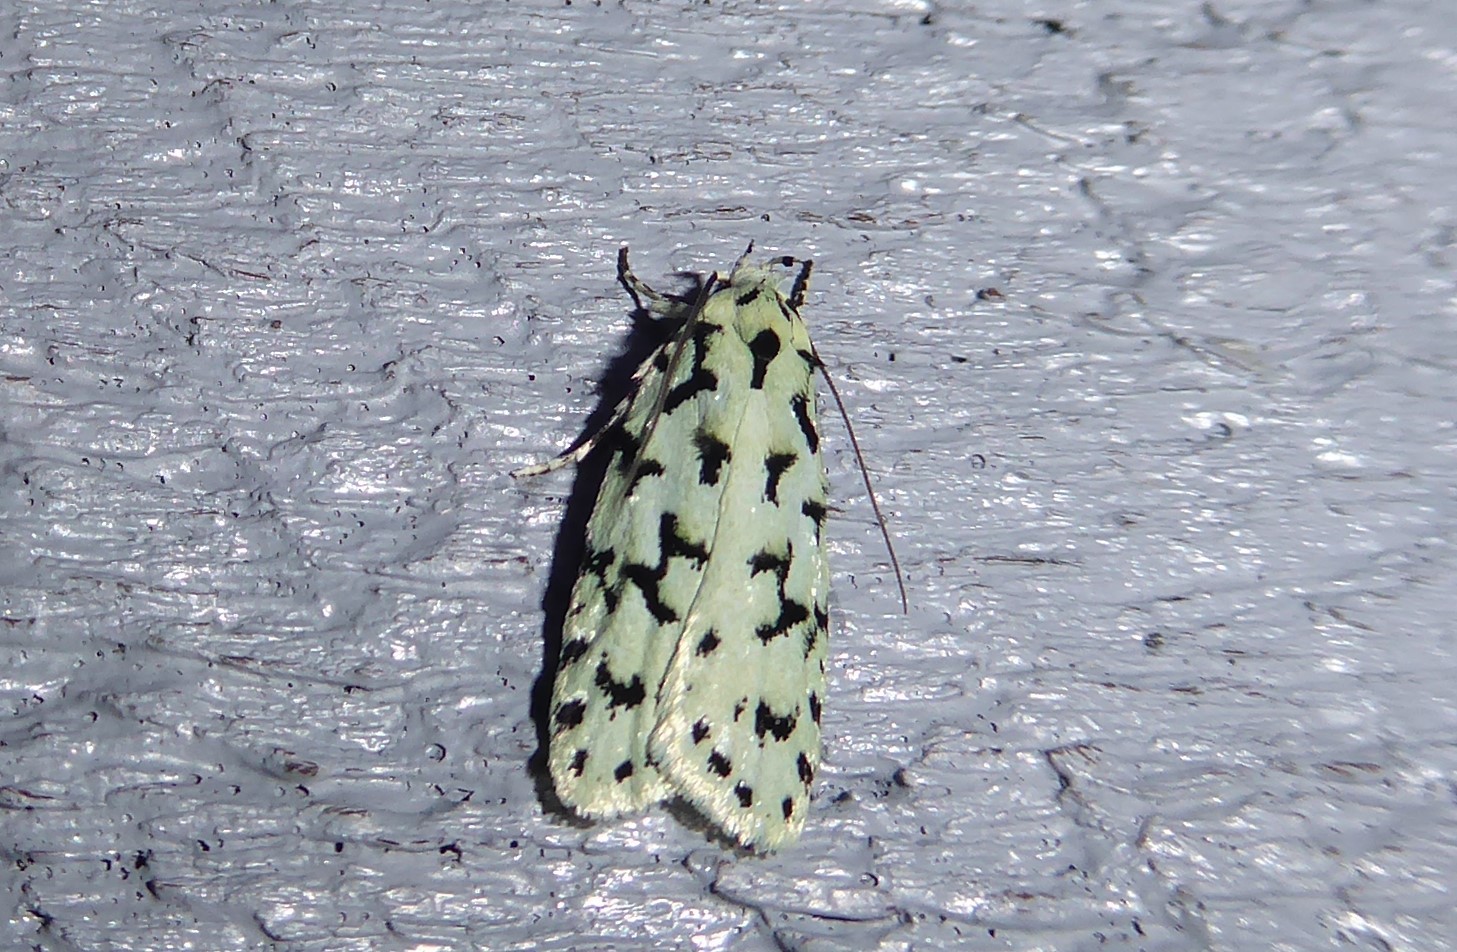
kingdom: Animalia
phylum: Arthropoda
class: Insecta
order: Lepidoptera
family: Oecophoridae
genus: Izatha
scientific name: Izatha huttoni
